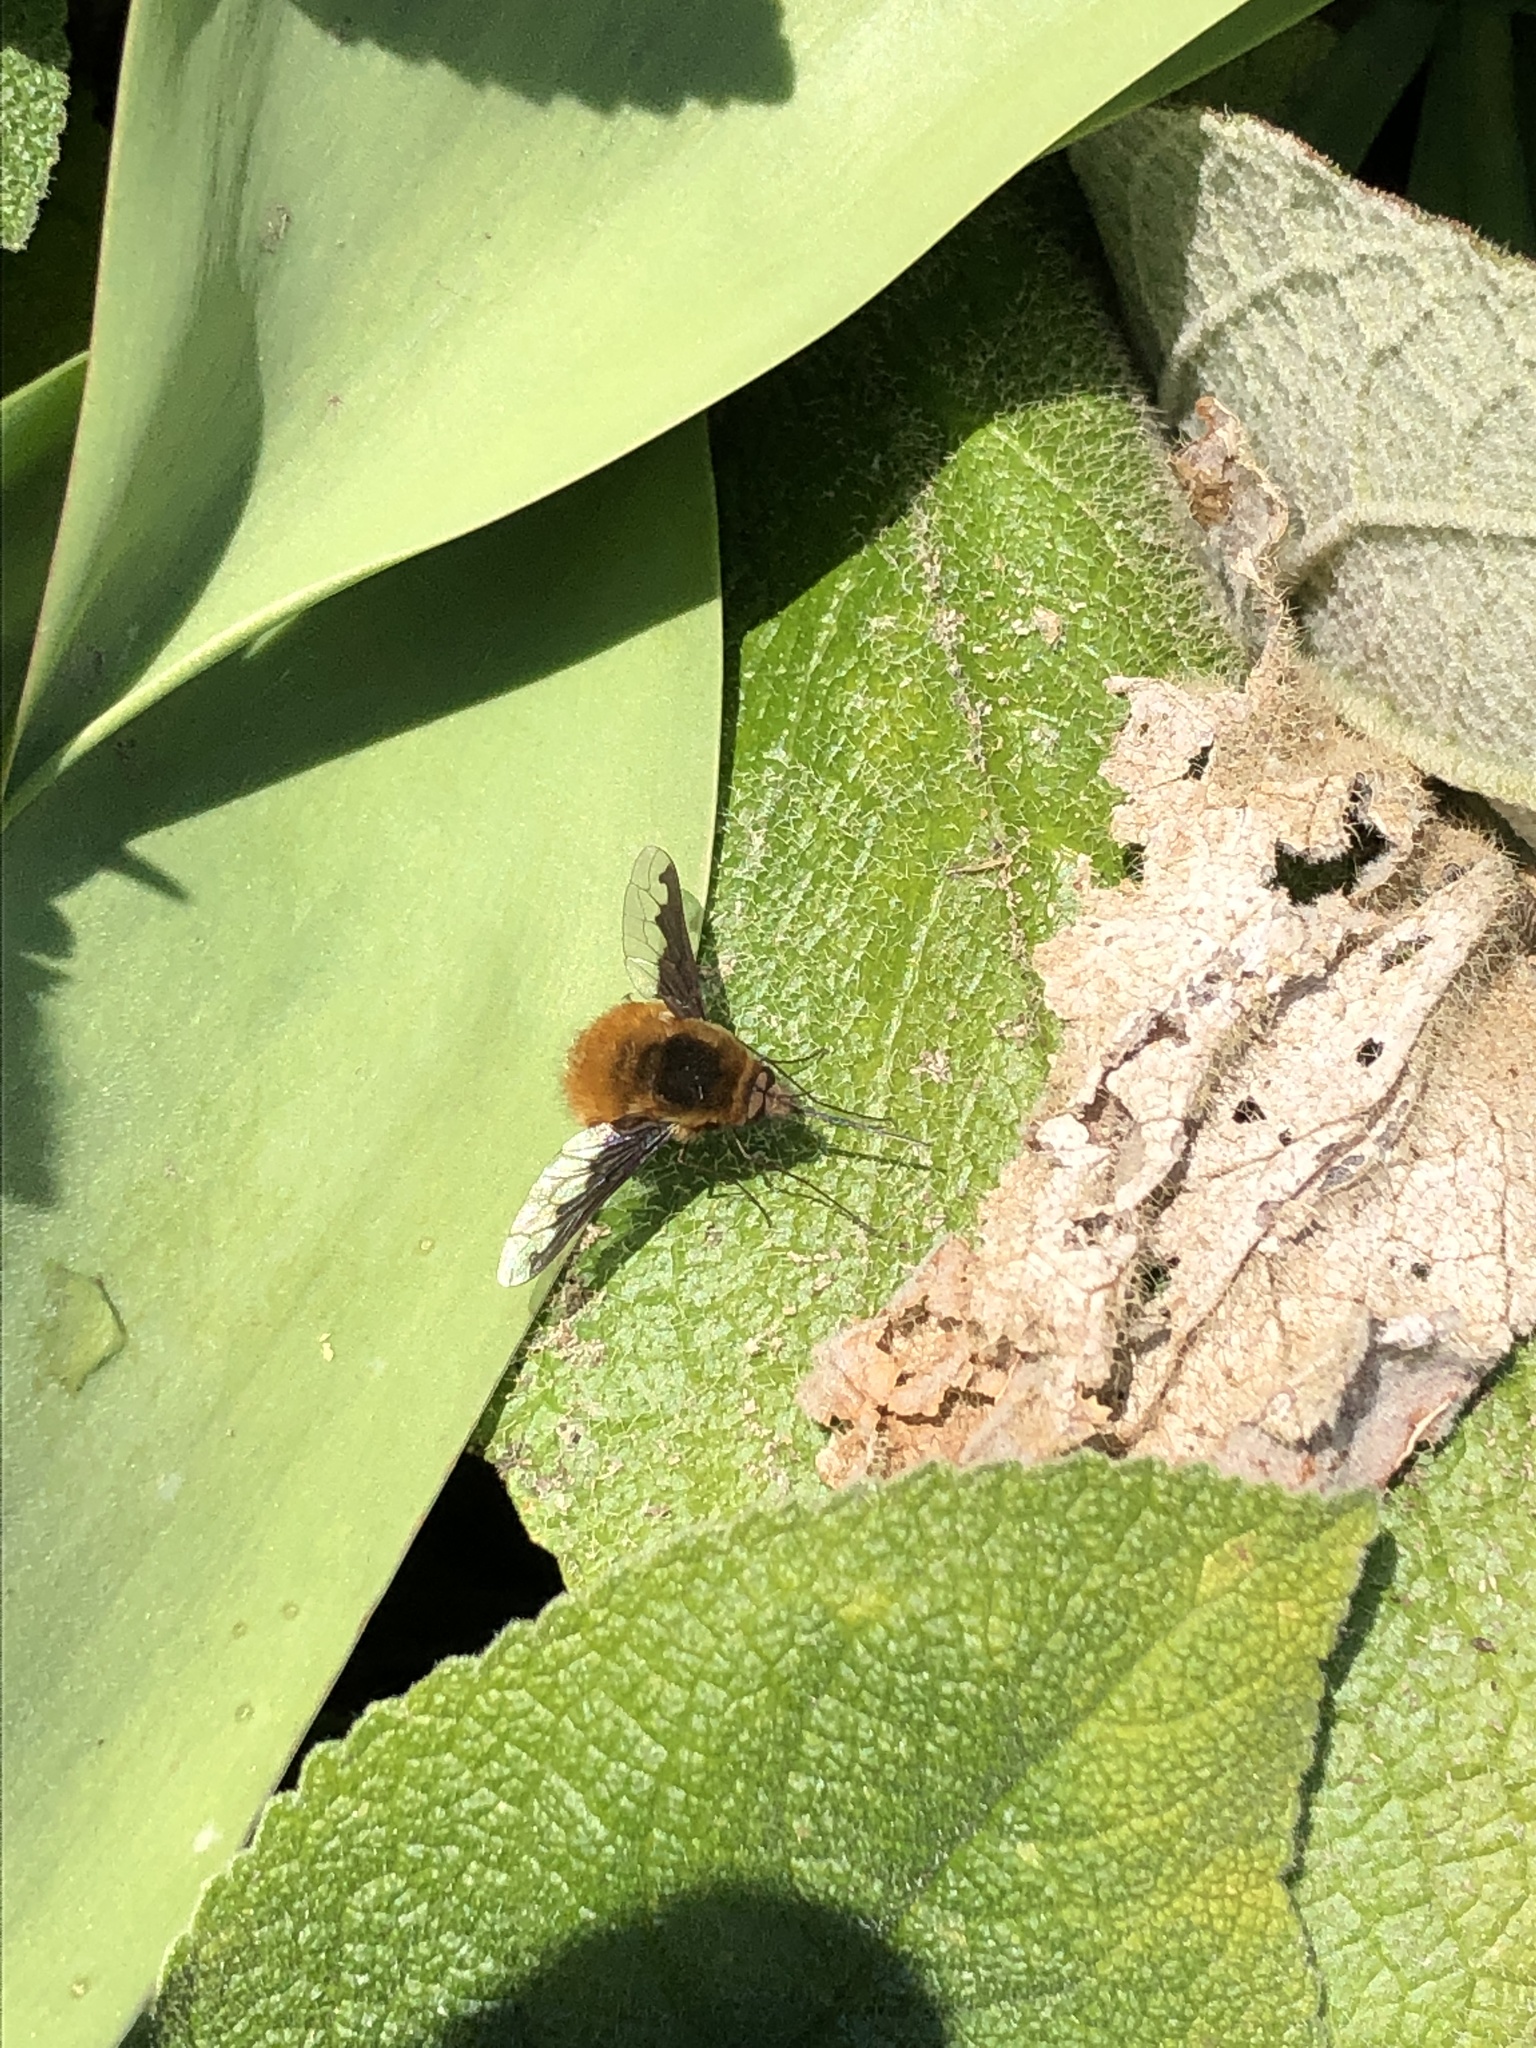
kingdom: Animalia
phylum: Arthropoda
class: Insecta
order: Diptera
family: Bombyliidae
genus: Bombylius
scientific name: Bombylius major
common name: Bee fly
